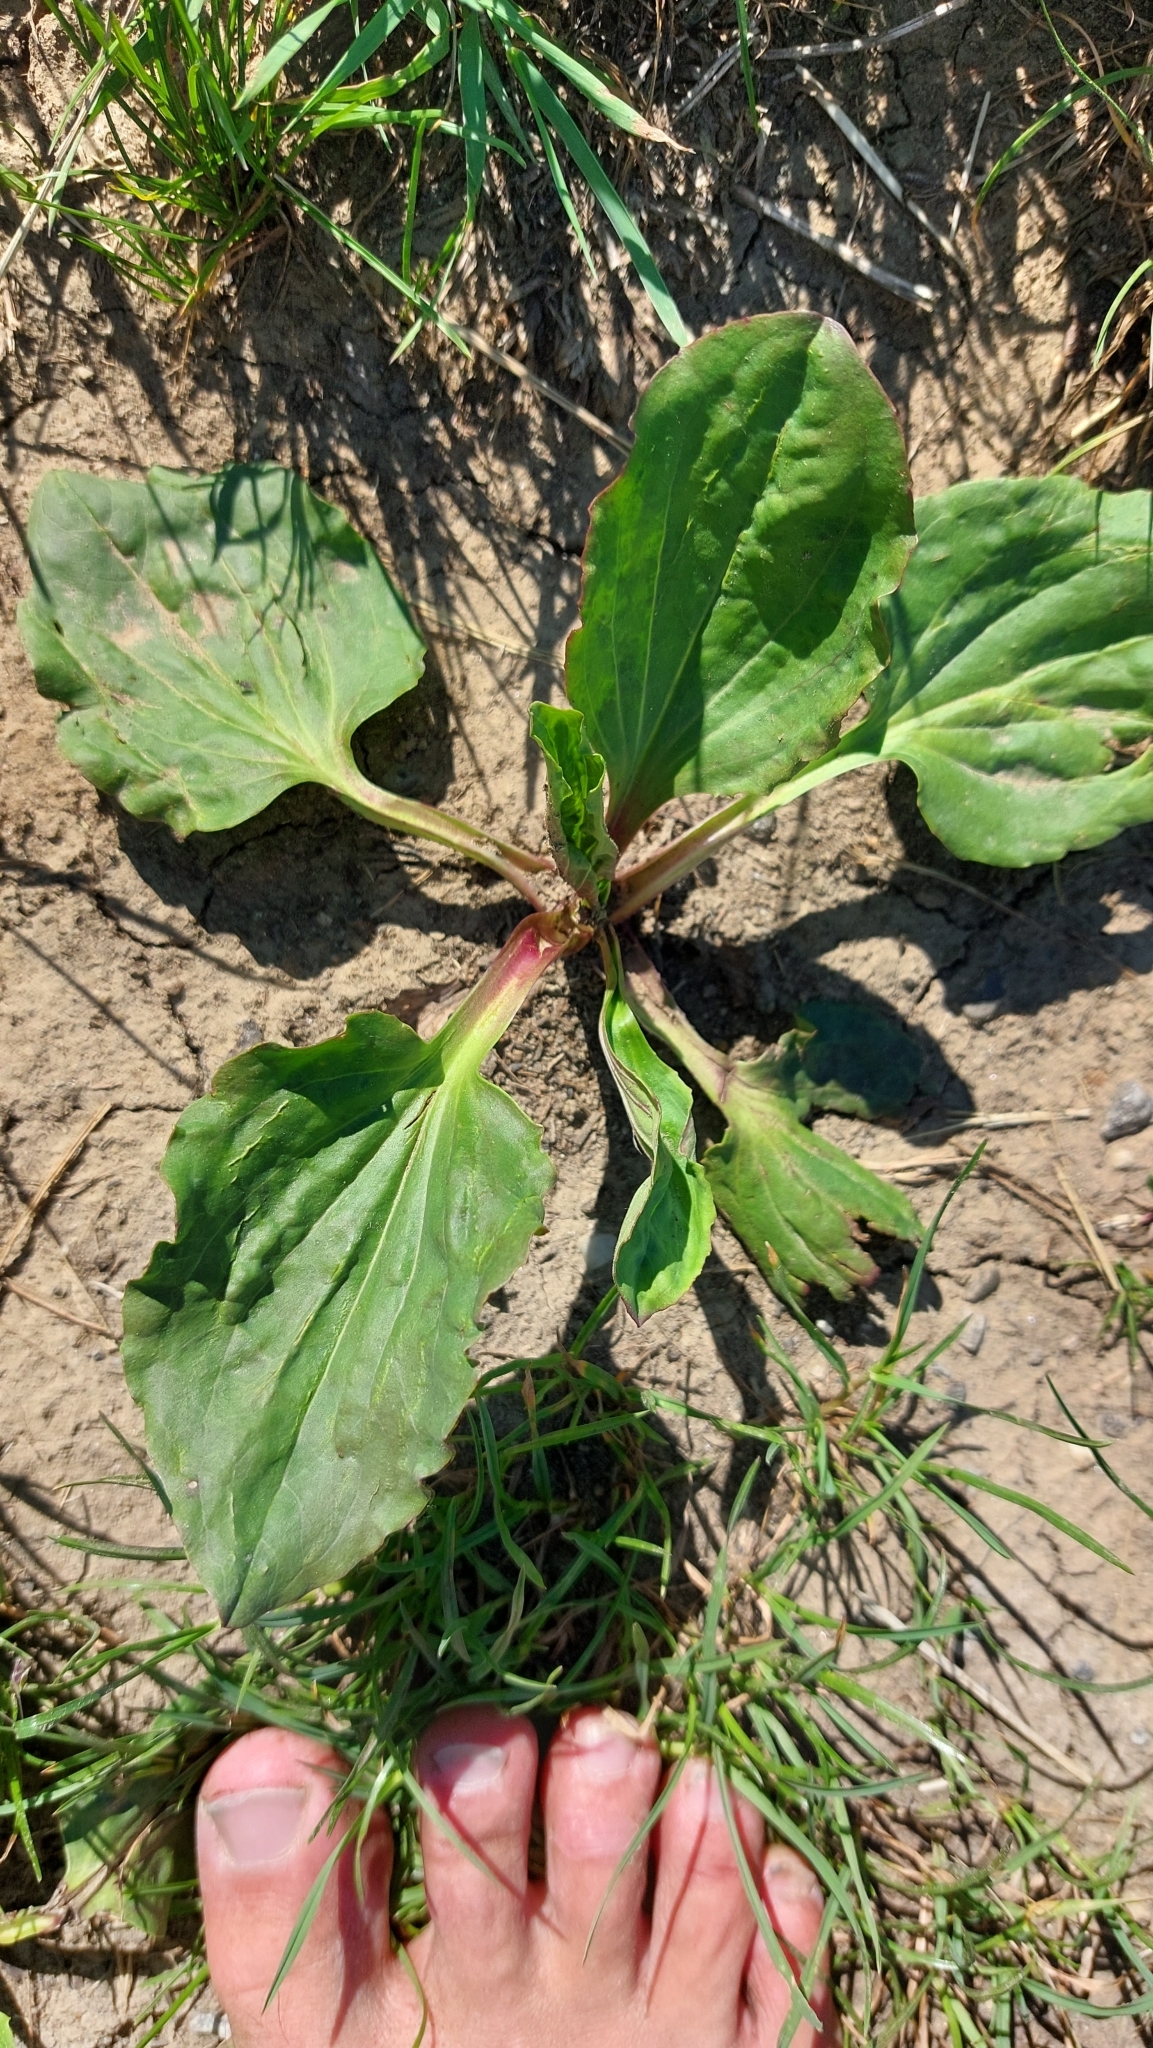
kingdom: Plantae
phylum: Tracheophyta
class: Magnoliopsida
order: Lamiales
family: Plantaginaceae
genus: Plantago
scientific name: Plantago major
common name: Common plantain
